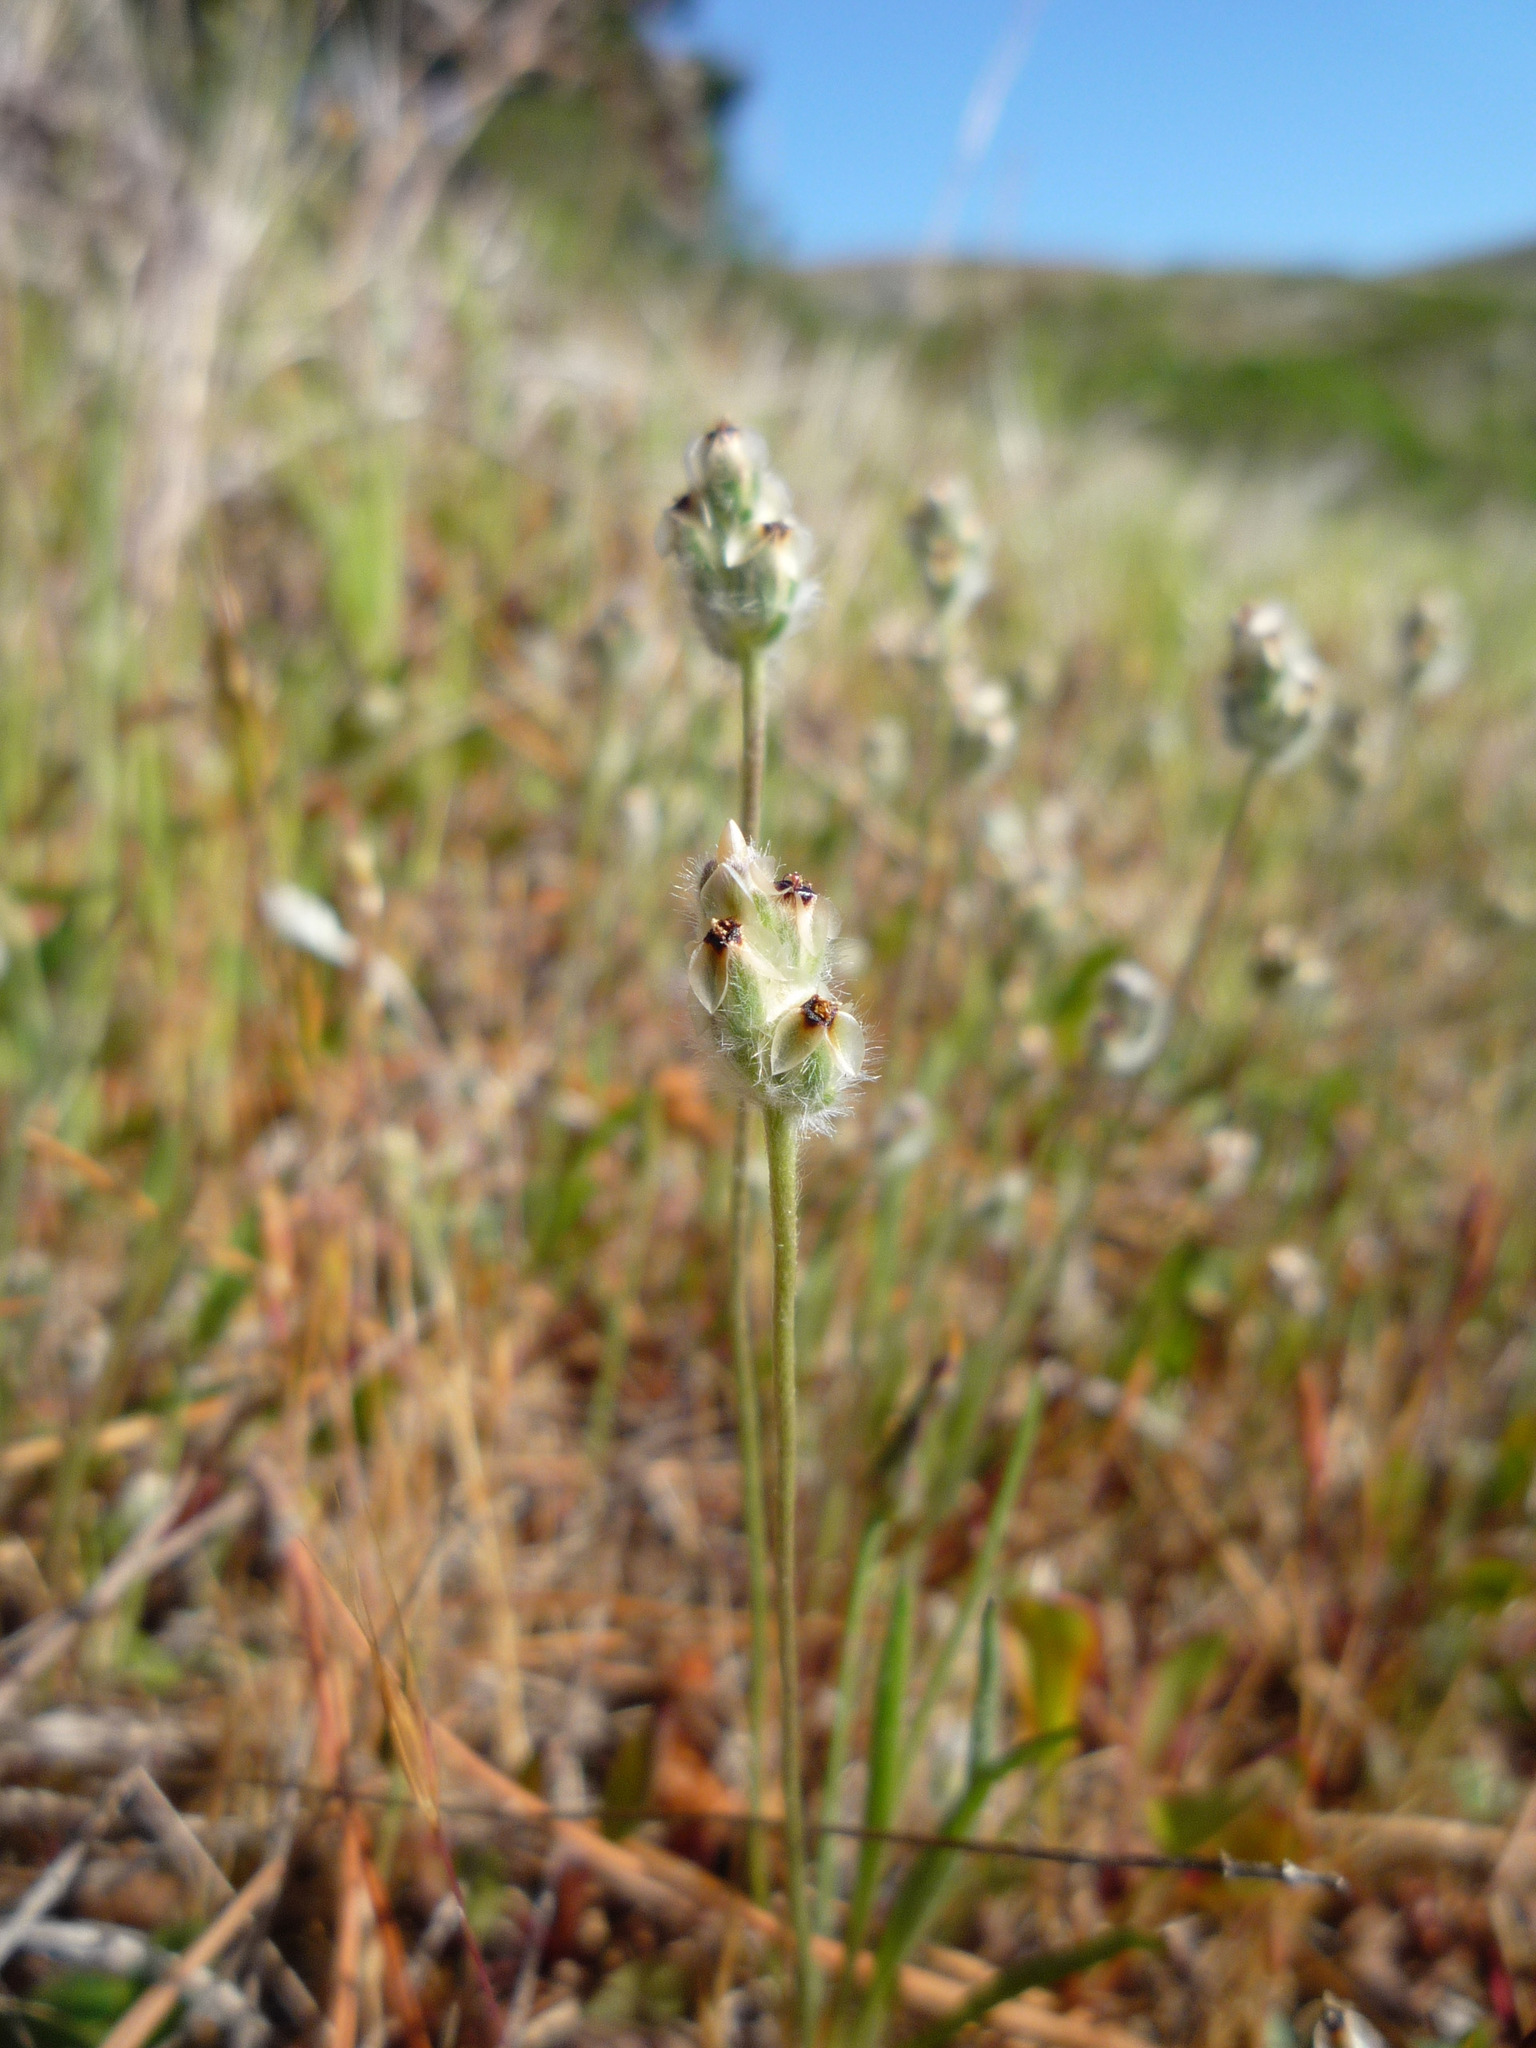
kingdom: Plantae
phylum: Tracheophyta
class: Magnoliopsida
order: Lamiales
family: Plantaginaceae
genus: Plantago
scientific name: Plantago erecta
